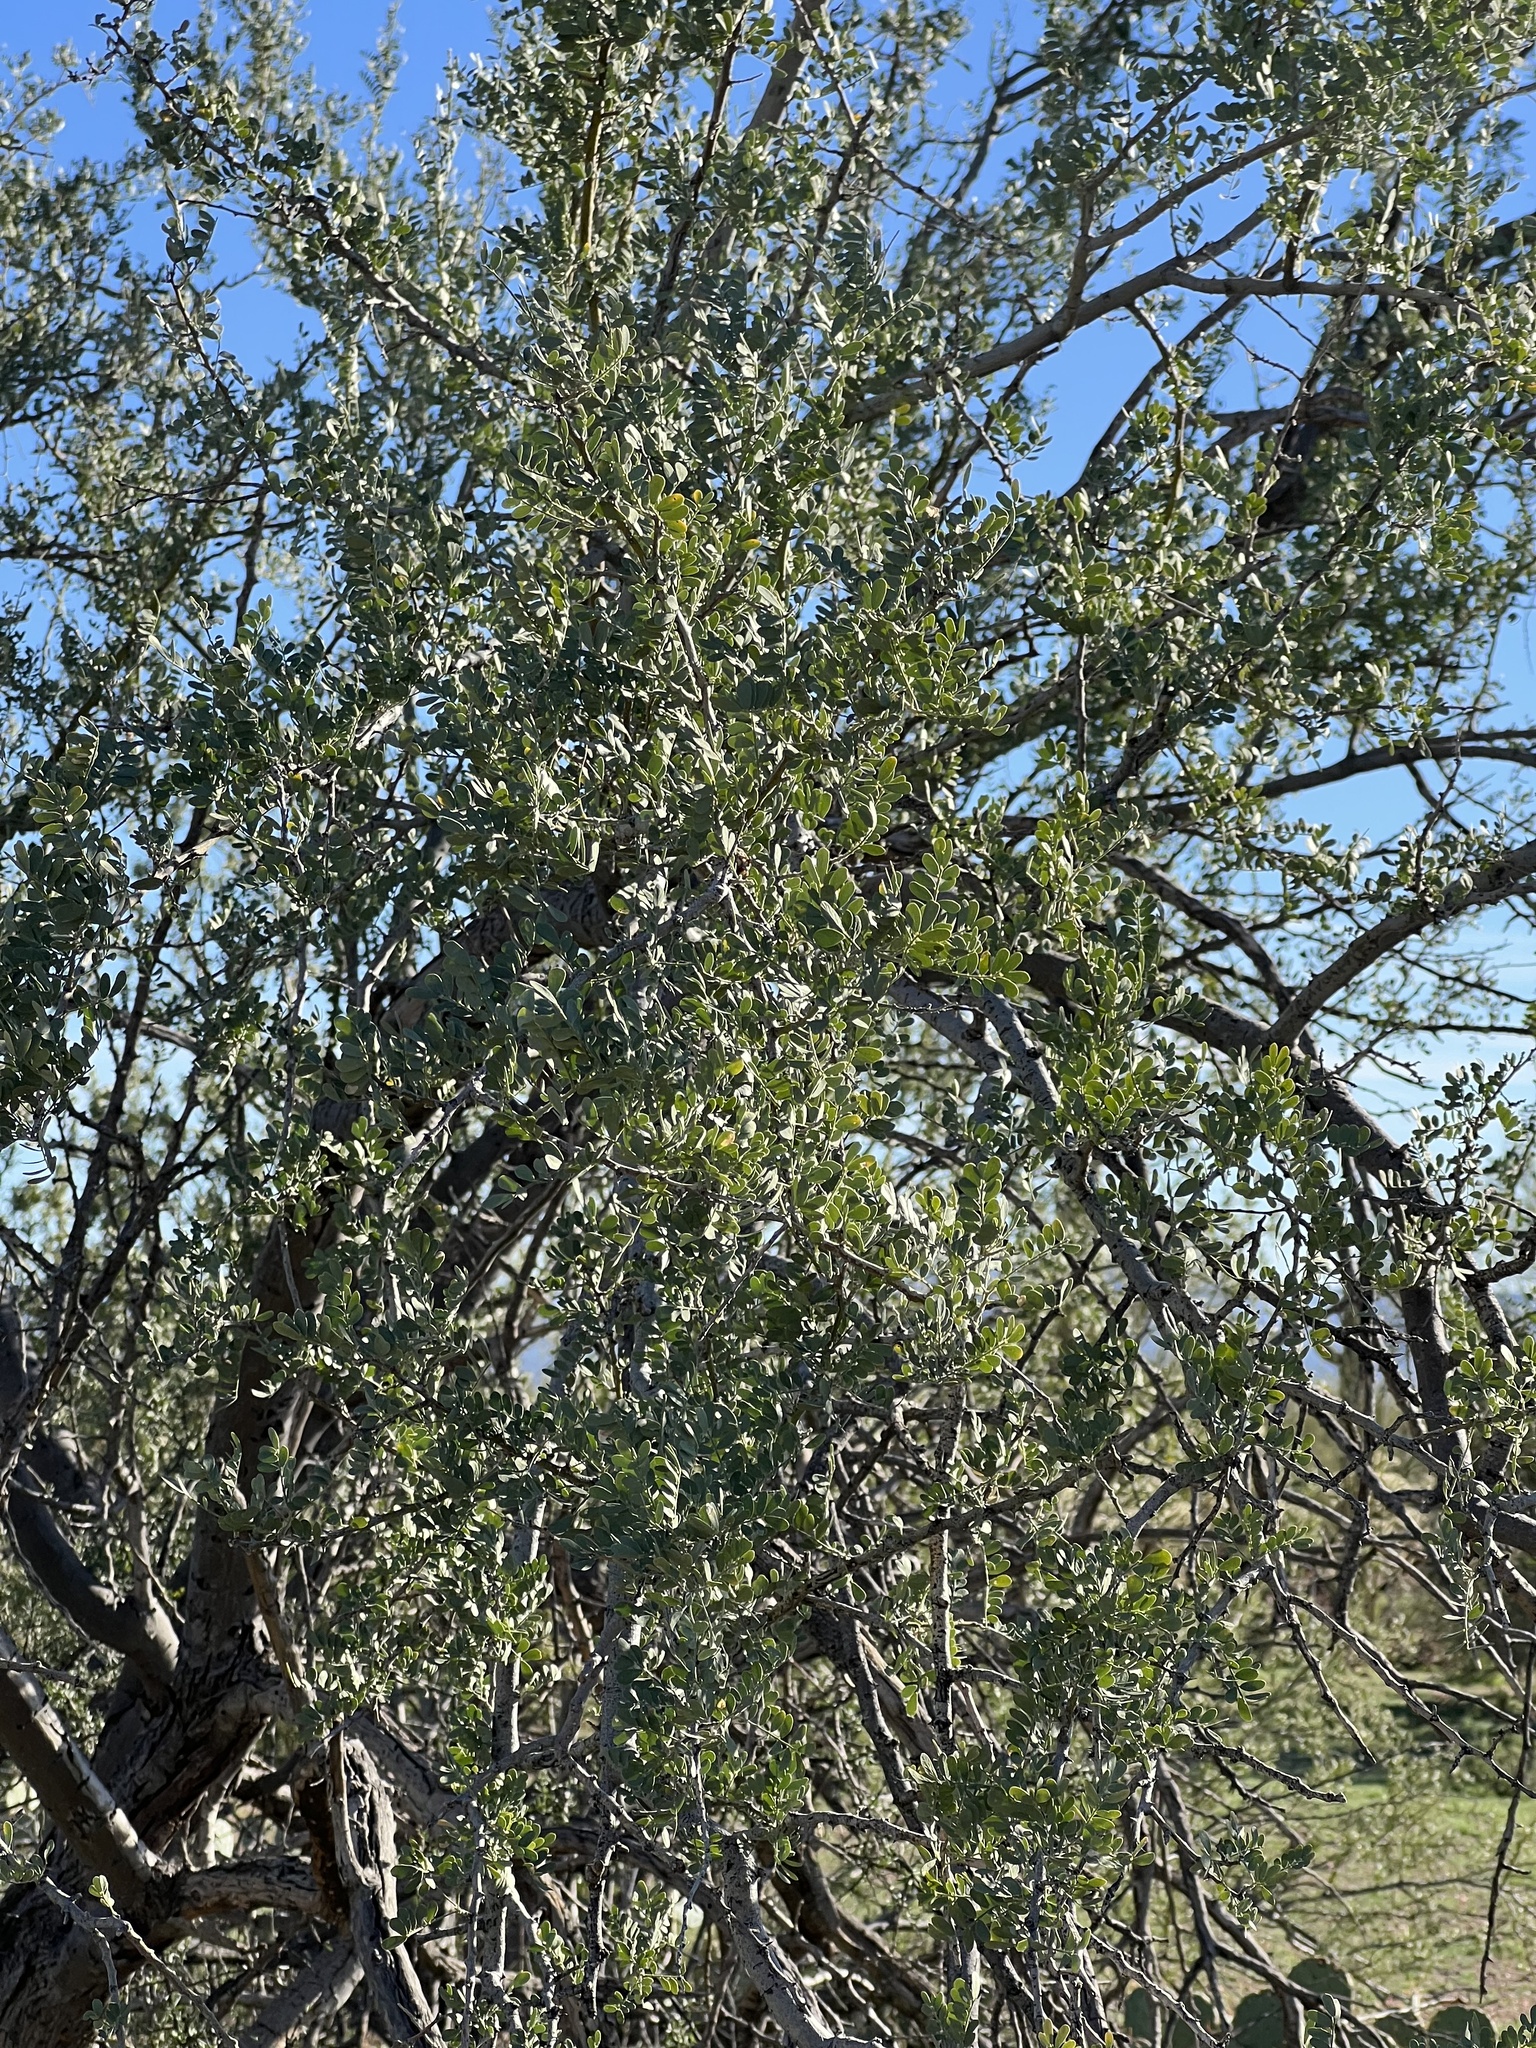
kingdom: Plantae
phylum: Tracheophyta
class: Magnoliopsida
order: Fabales
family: Fabaceae
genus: Olneya
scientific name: Olneya tesota
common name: Desert ironwood
